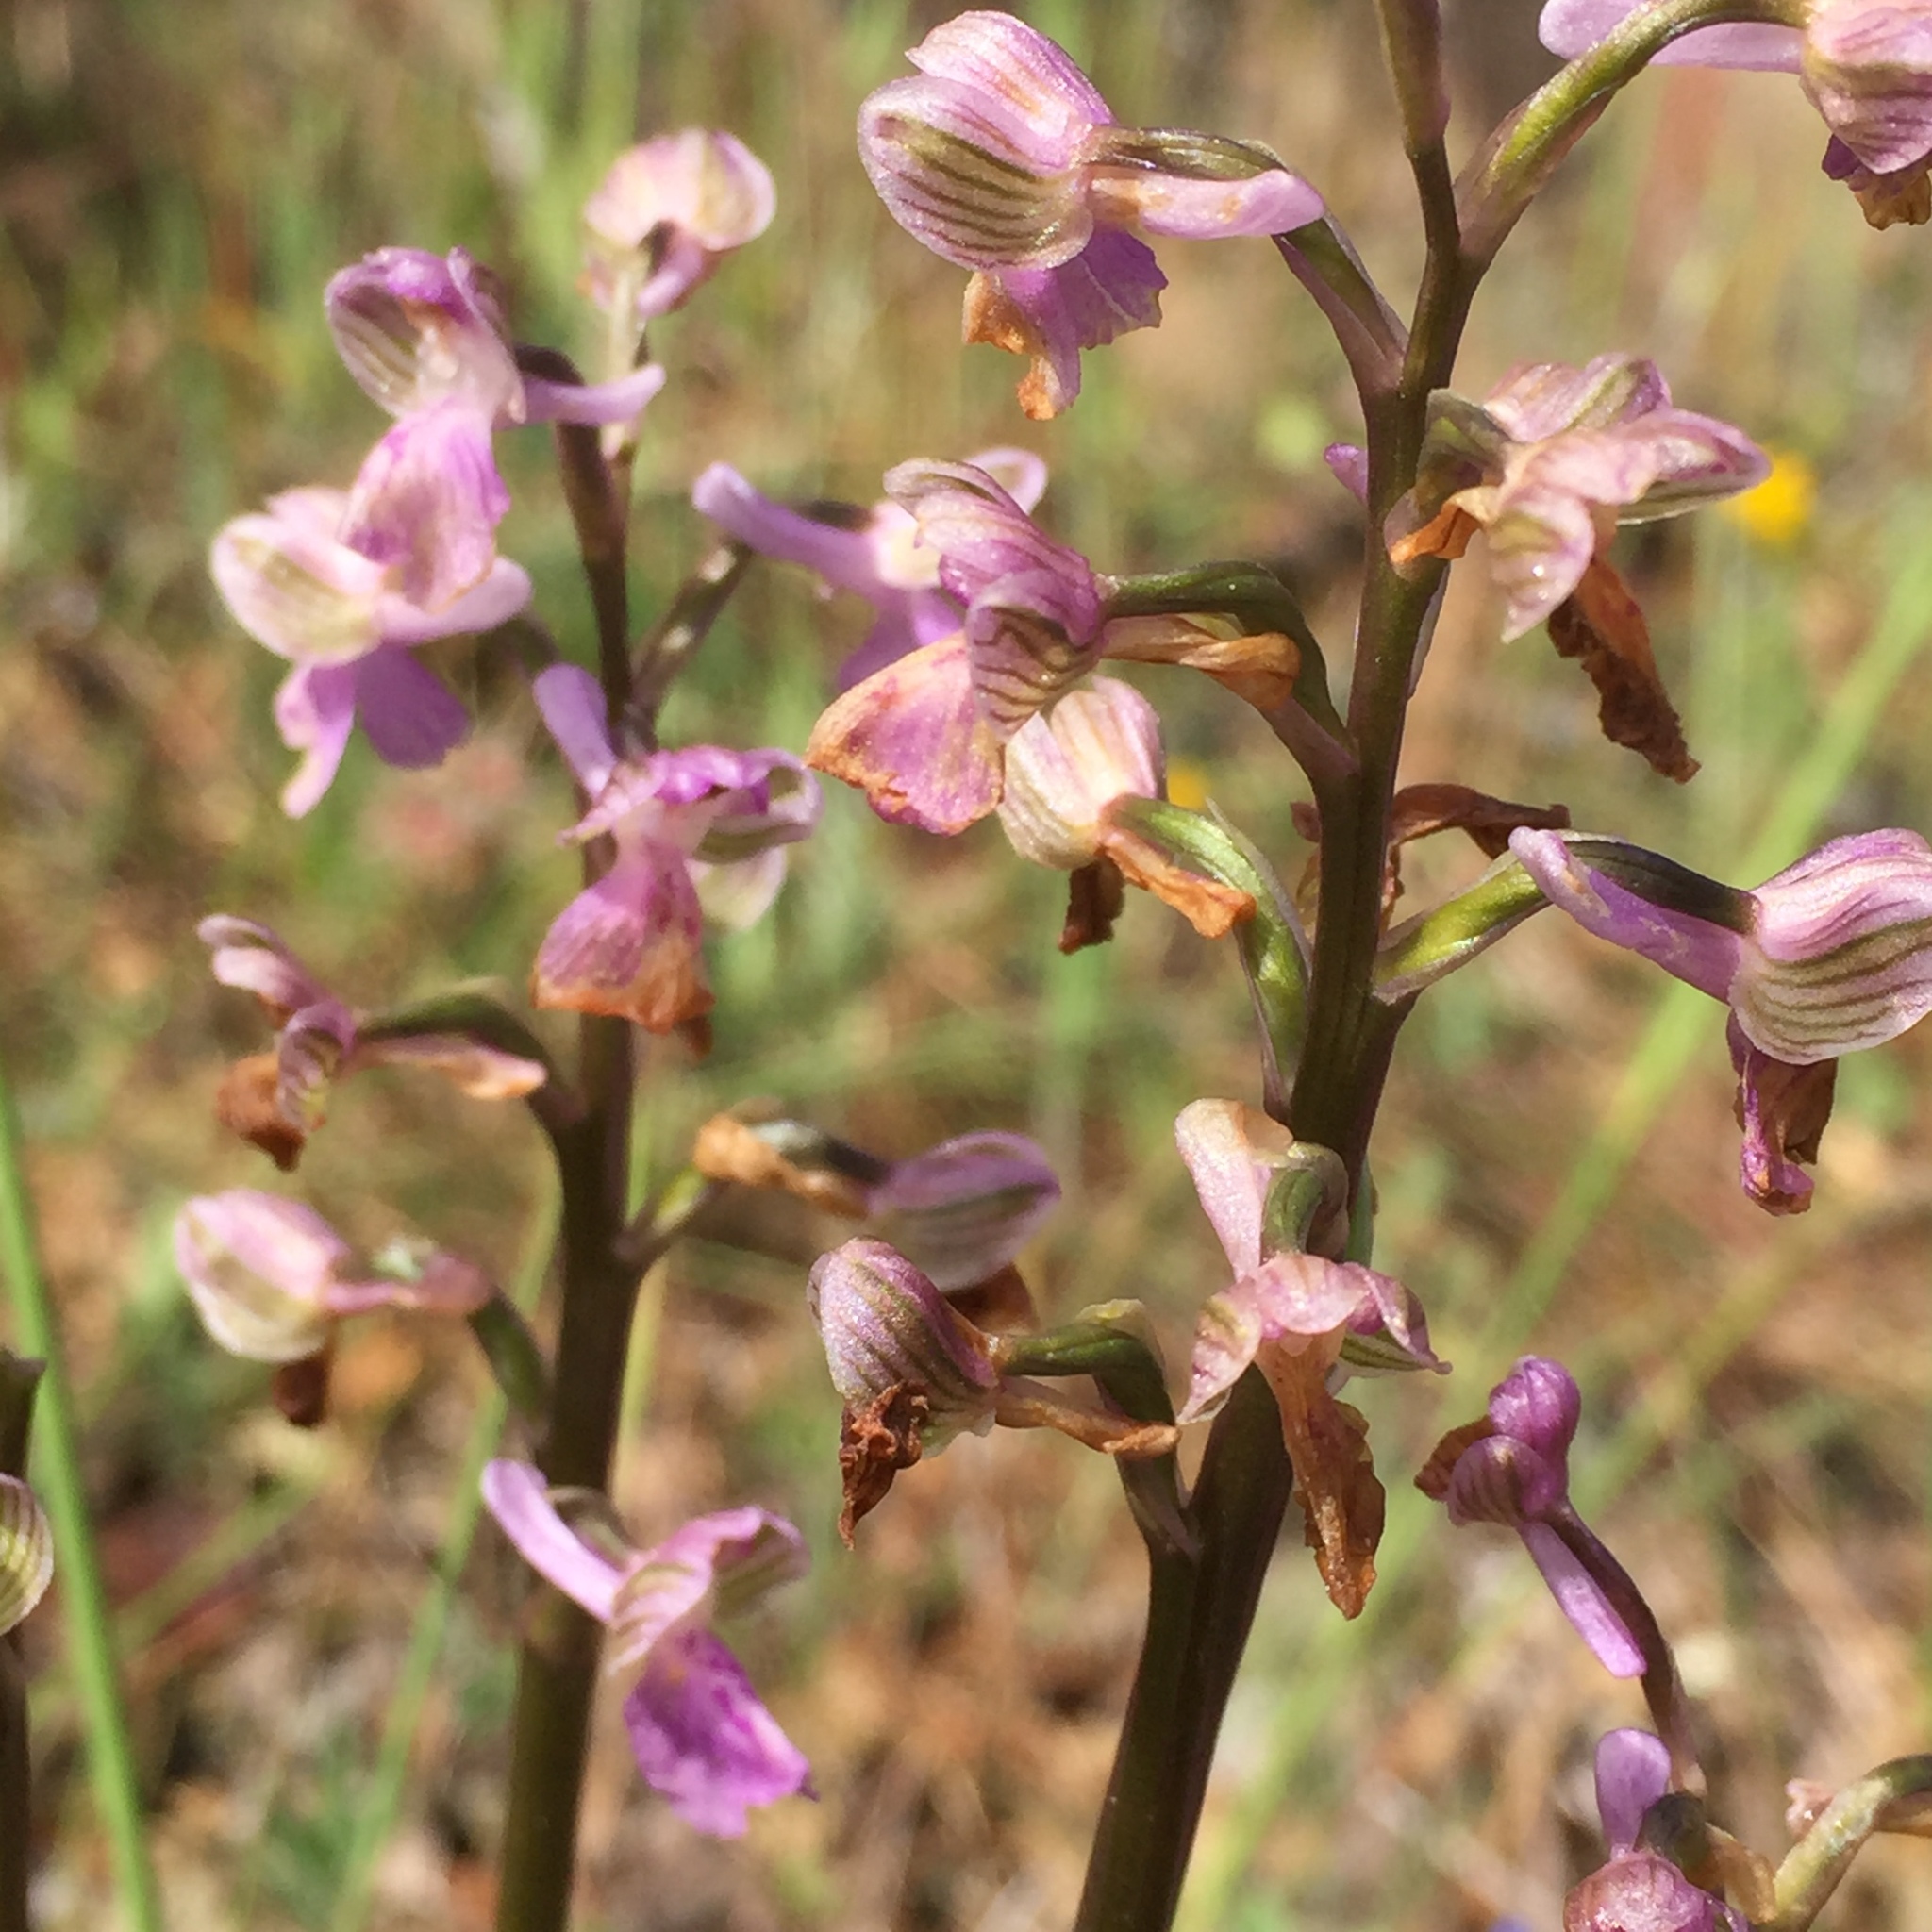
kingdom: Plantae
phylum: Tracheophyta
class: Liliopsida
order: Asparagales
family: Orchidaceae
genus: Anacamptis
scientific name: Anacamptis morio
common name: Green-winged orchid
